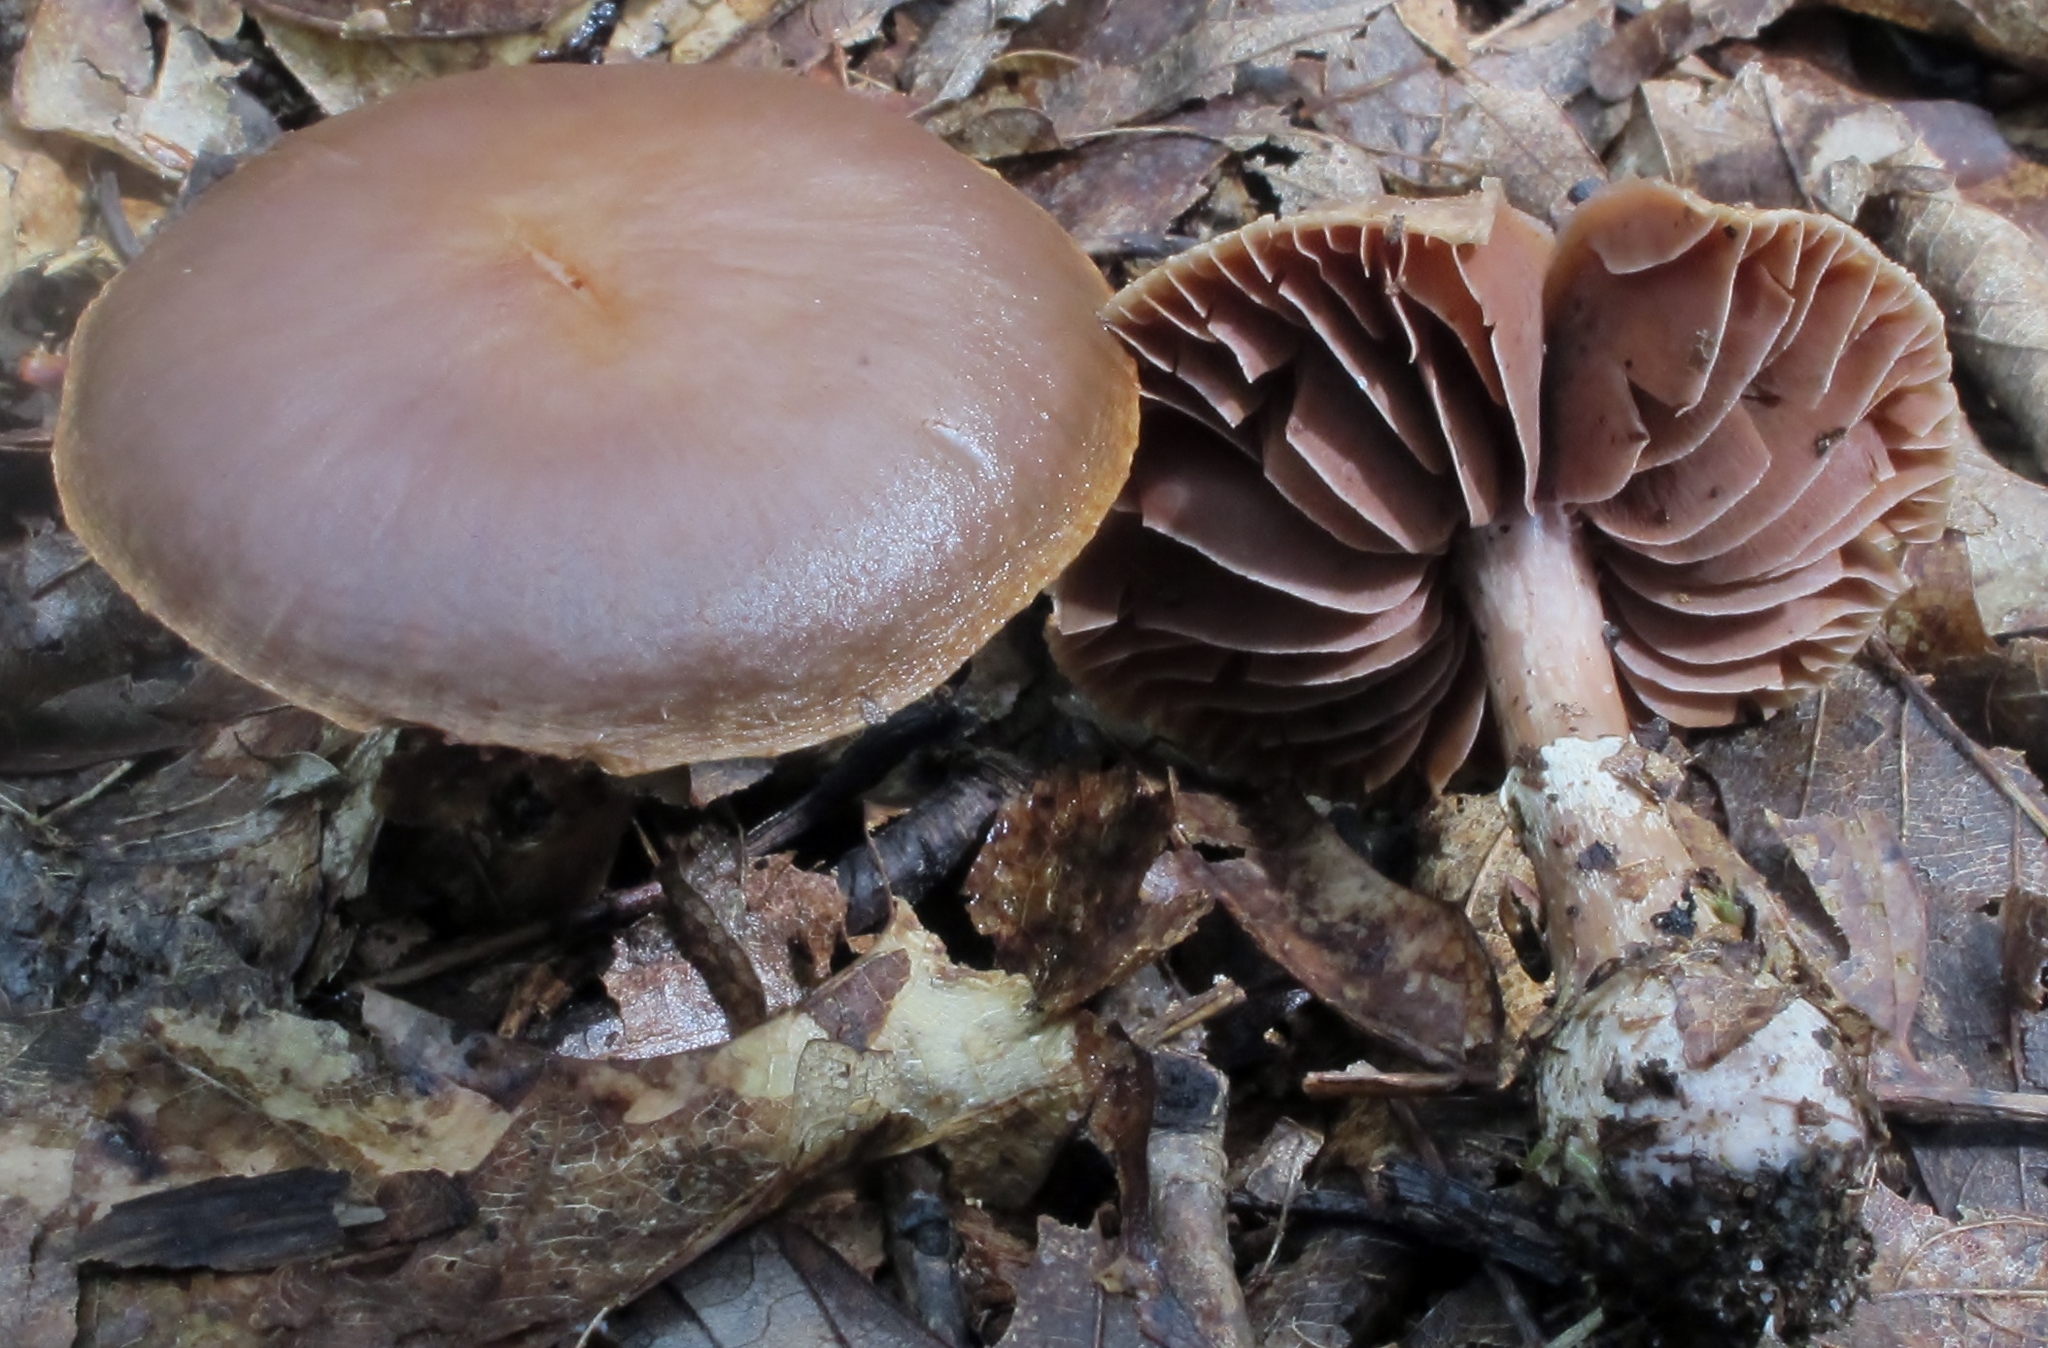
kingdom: Fungi
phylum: Basidiomycota
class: Agaricomycetes
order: Agaricales
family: Cortinariaceae
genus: Cortinarius
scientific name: Cortinarius
